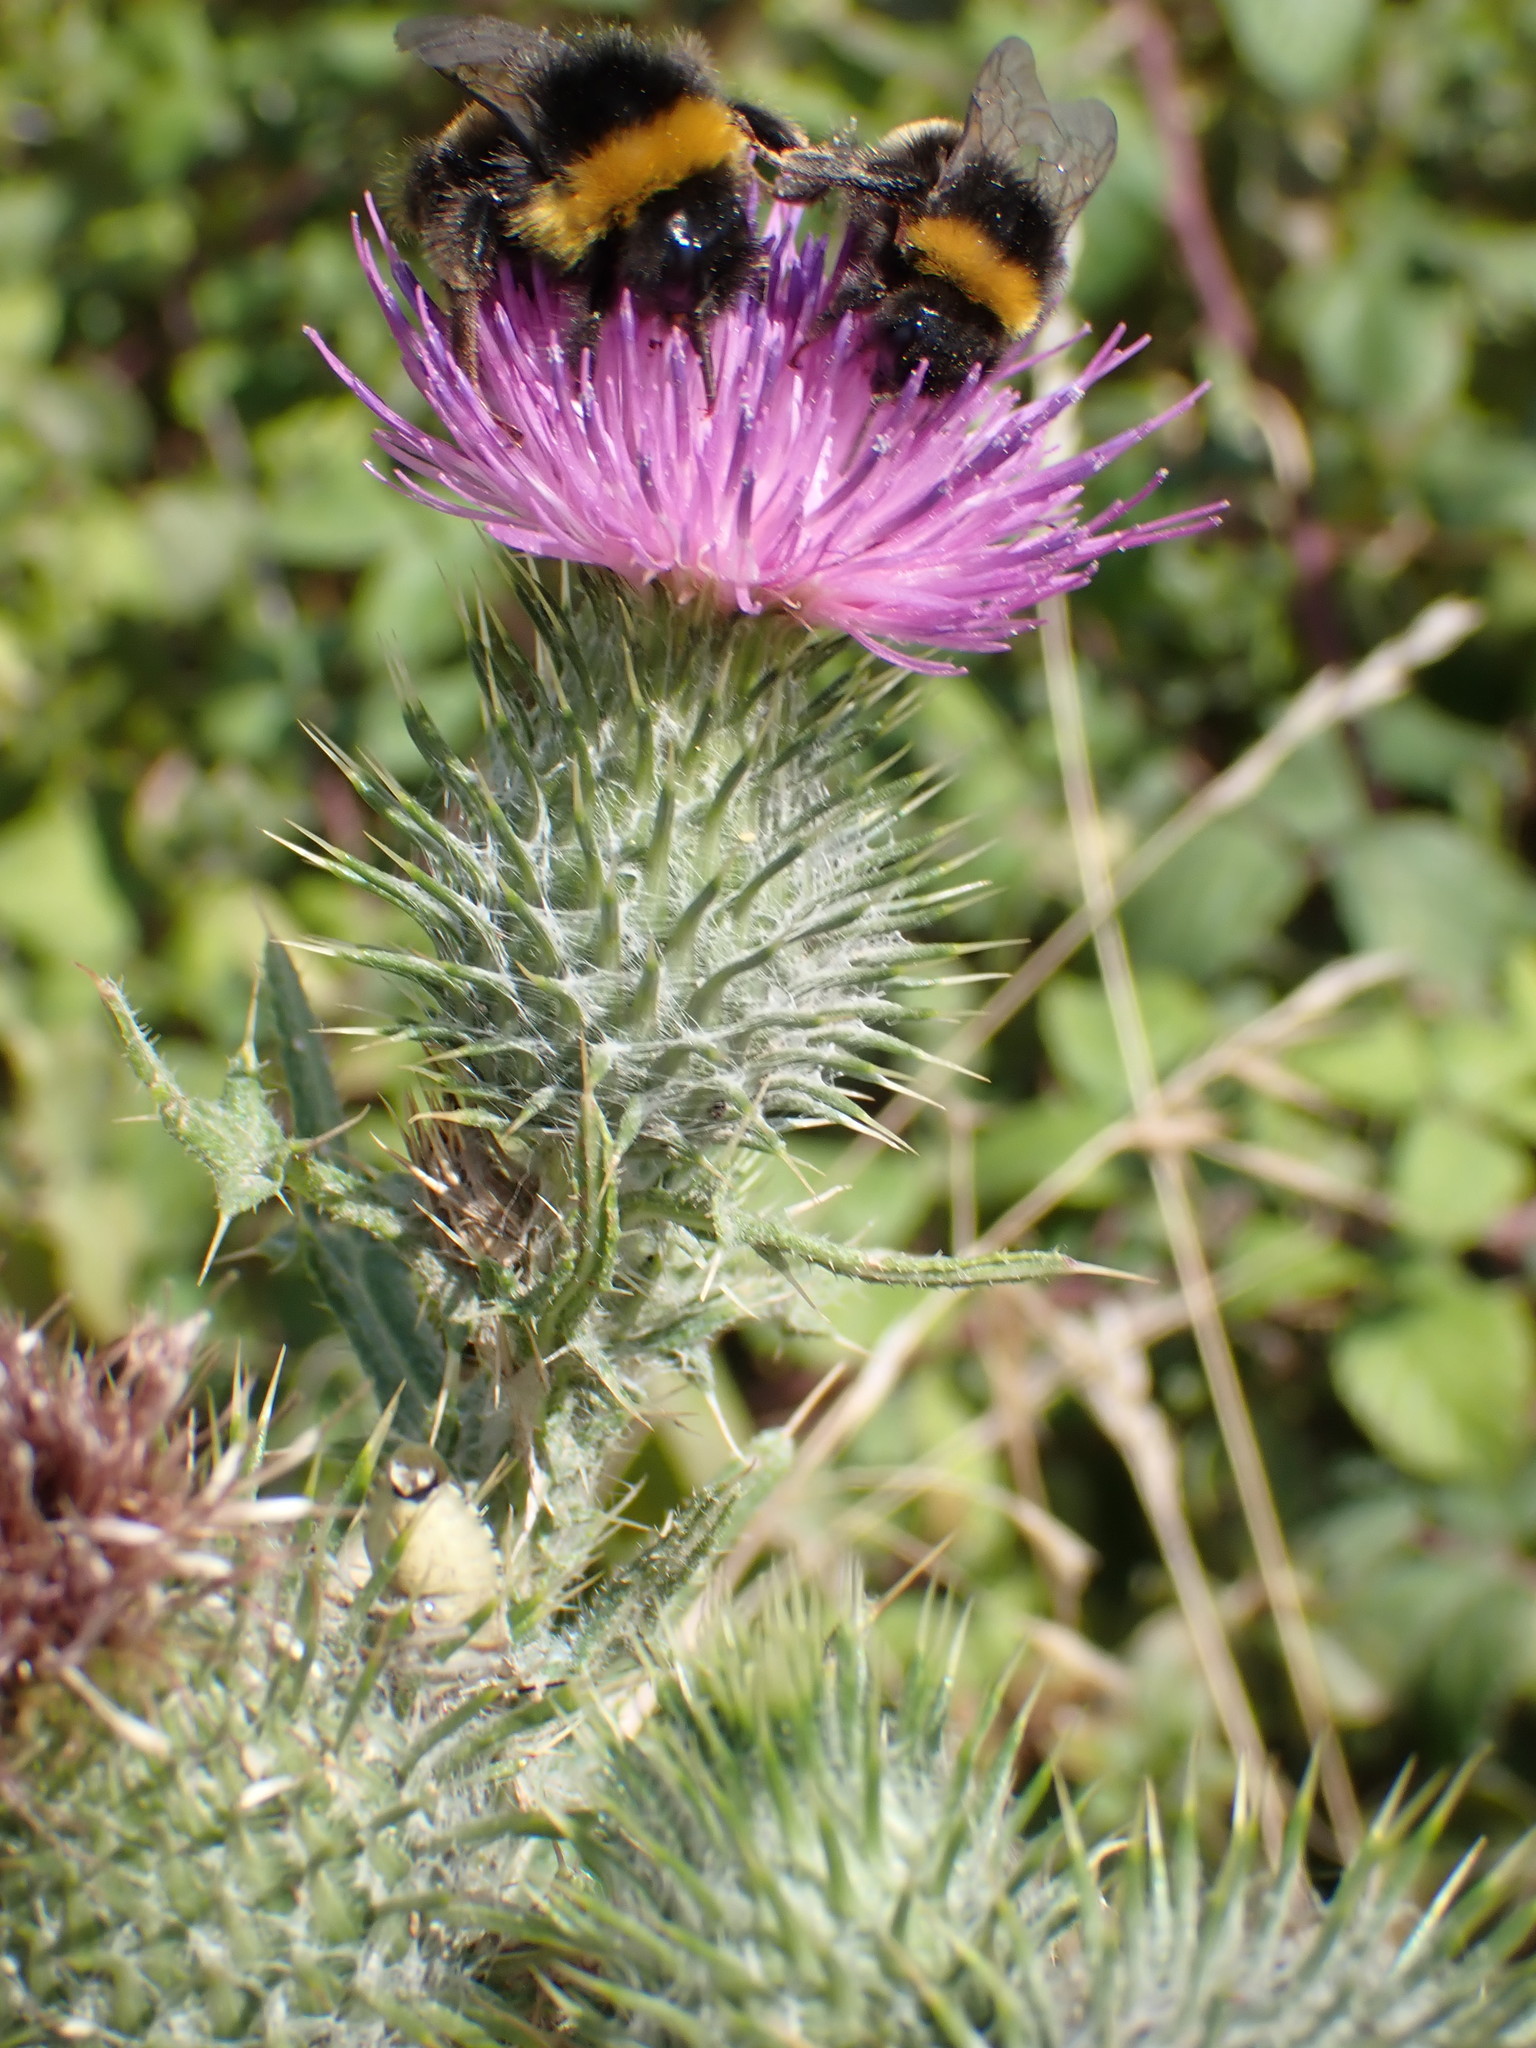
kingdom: Plantae
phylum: Tracheophyta
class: Magnoliopsida
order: Asterales
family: Asteraceae
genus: Cirsium
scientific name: Cirsium vulgare
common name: Bull thistle
